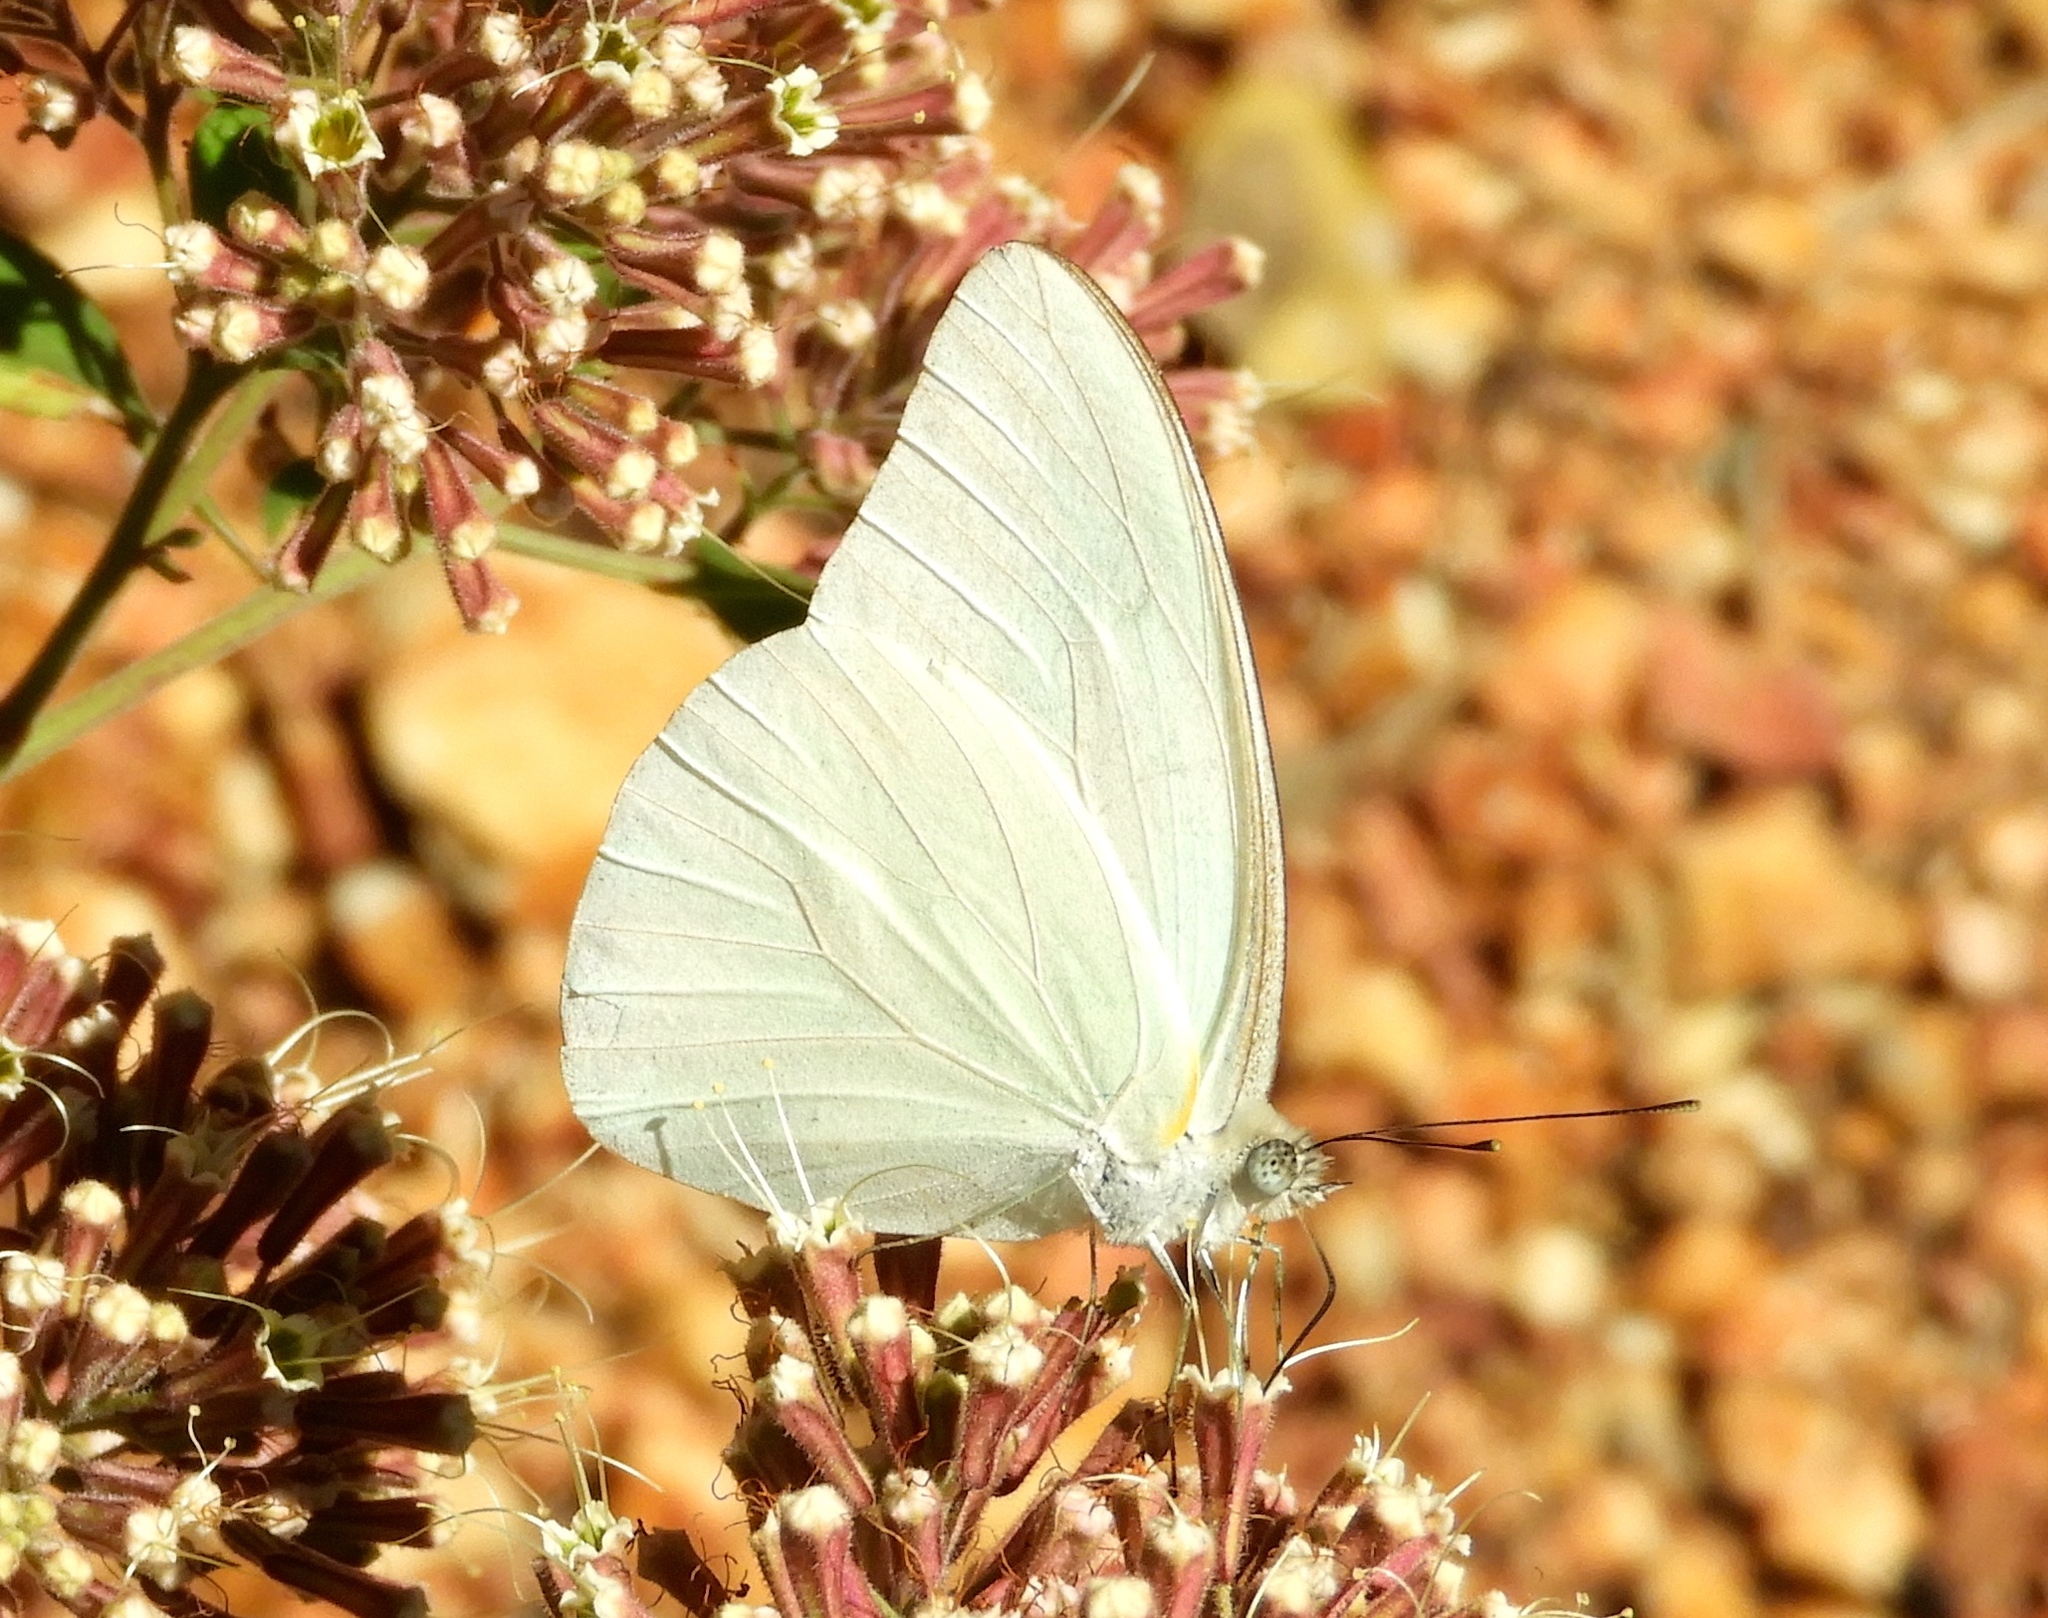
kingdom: Animalia
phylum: Arthropoda
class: Insecta
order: Lepidoptera
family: Pieridae
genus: Glutophrissa
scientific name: Glutophrissa drusilla
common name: Florida white
